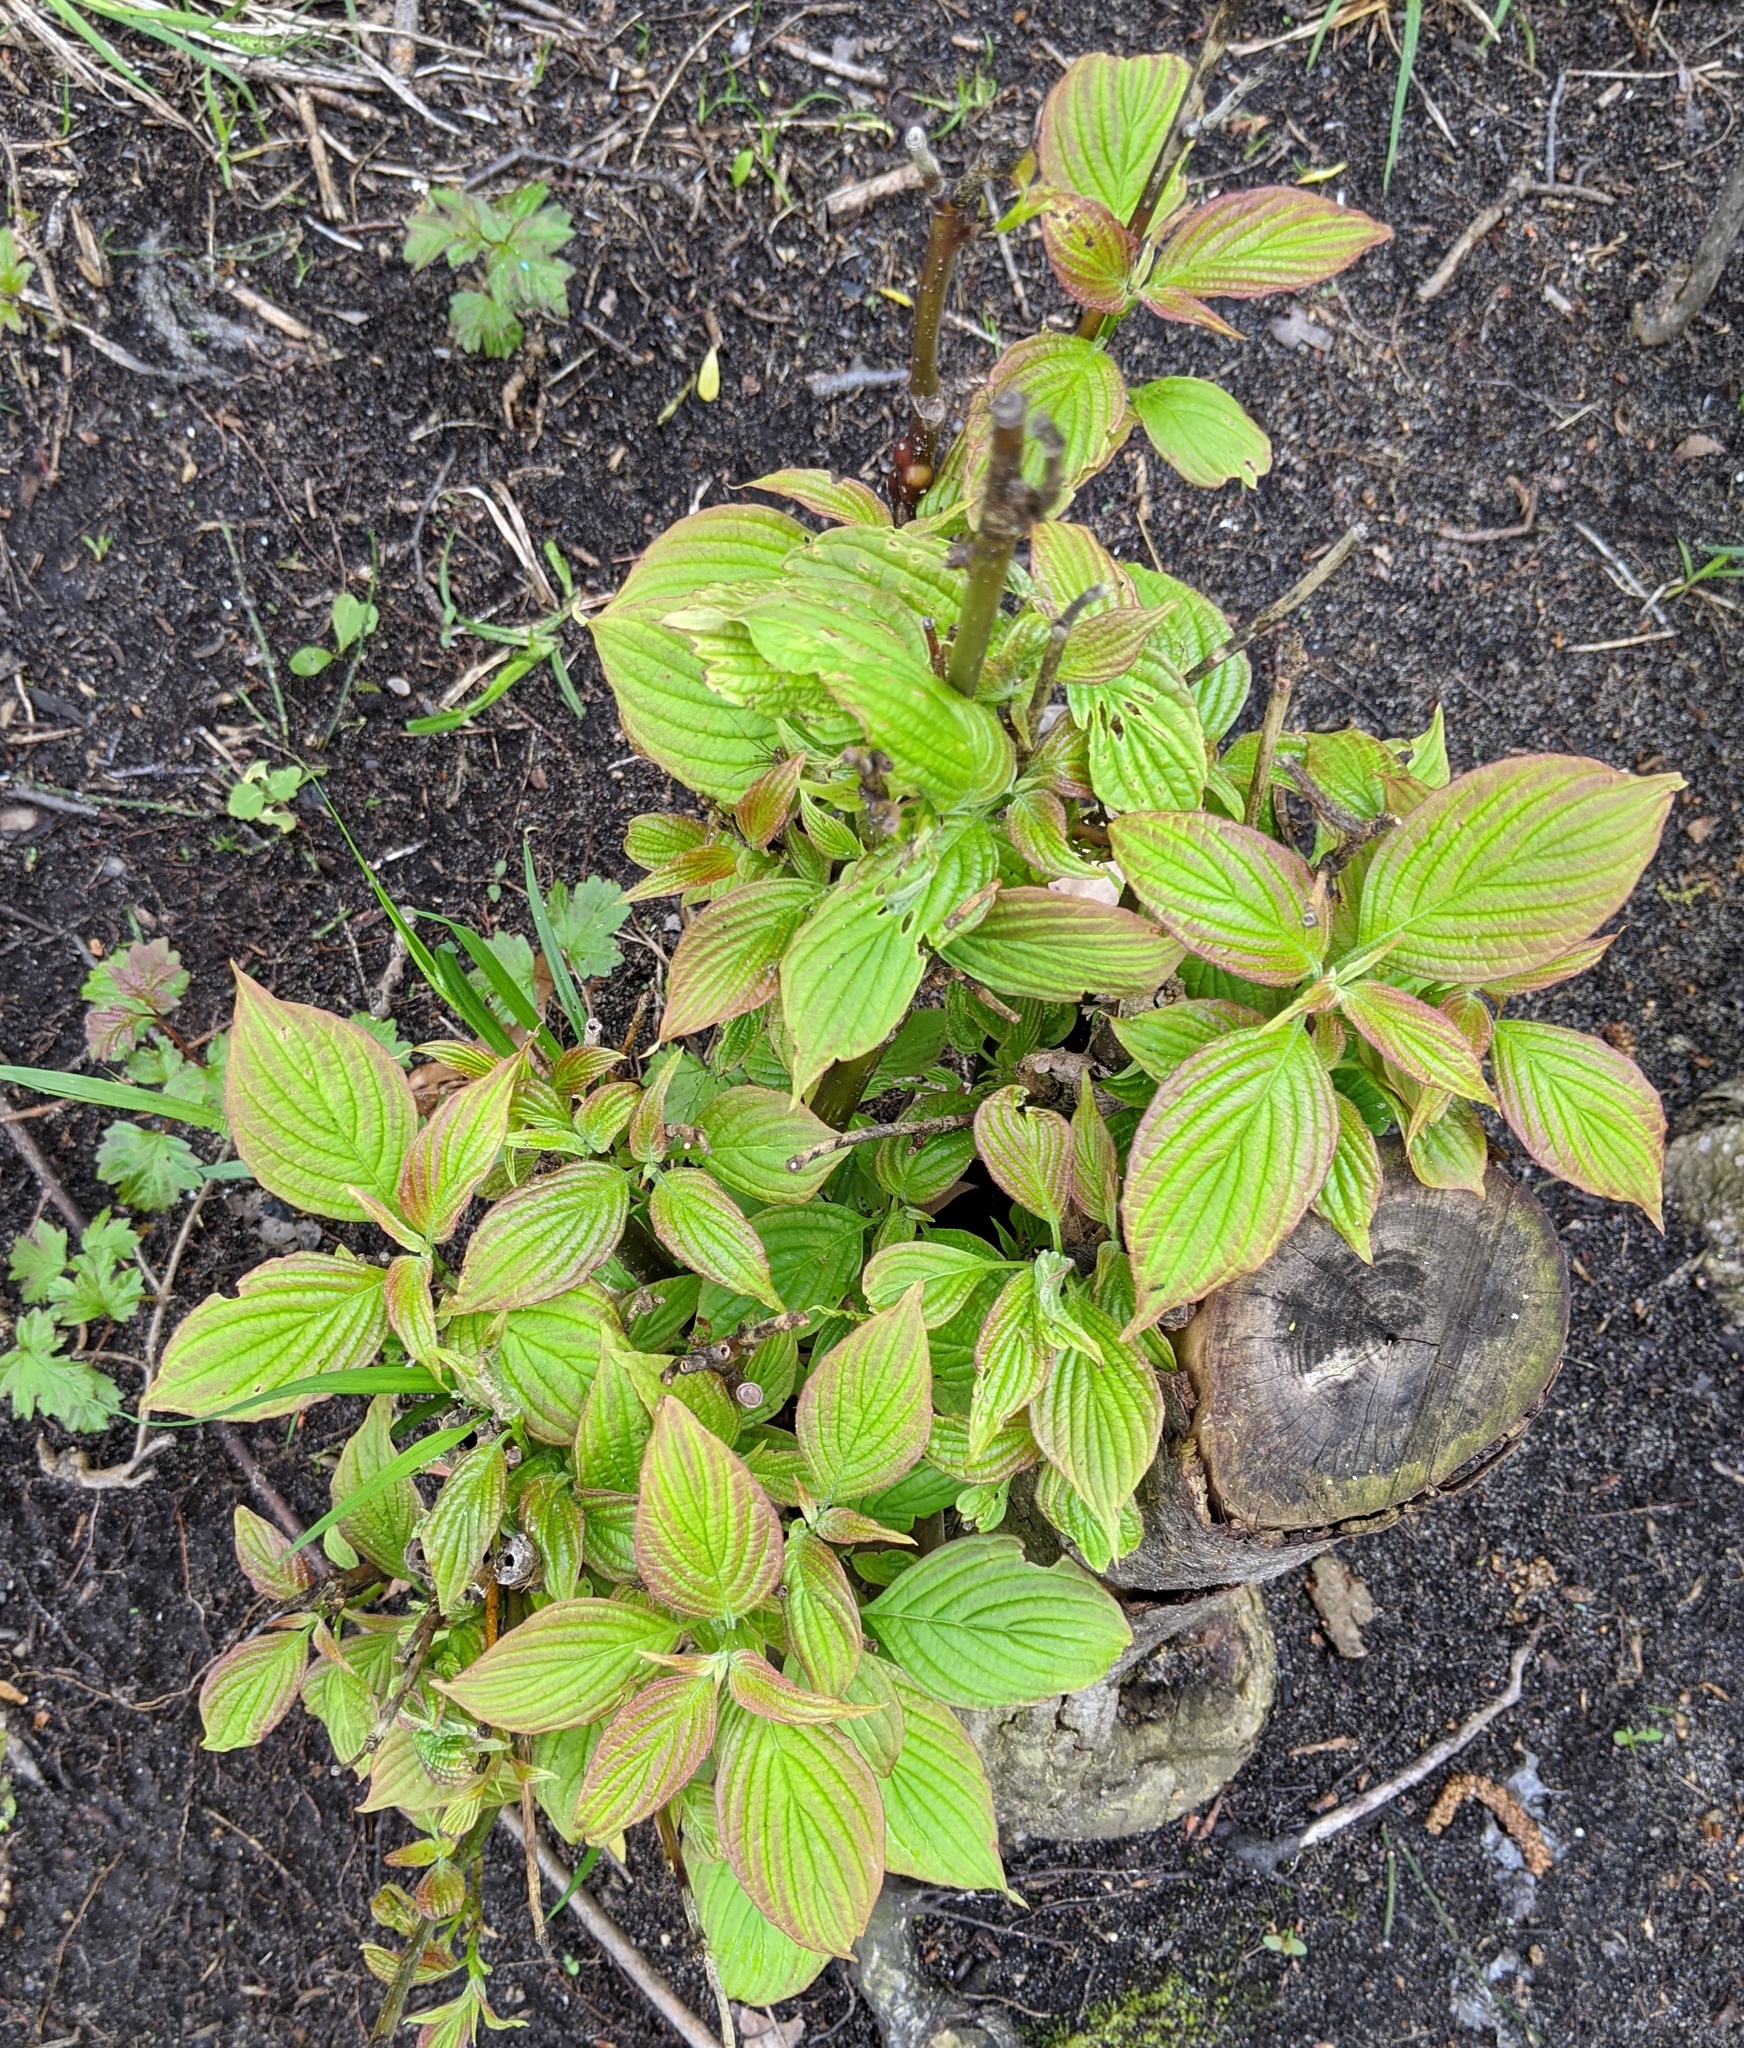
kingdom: Plantae
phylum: Tracheophyta
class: Magnoliopsida
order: Cornales
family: Cornaceae
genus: Cornus
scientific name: Cornus alternifolia
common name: Pagoda dogwood
